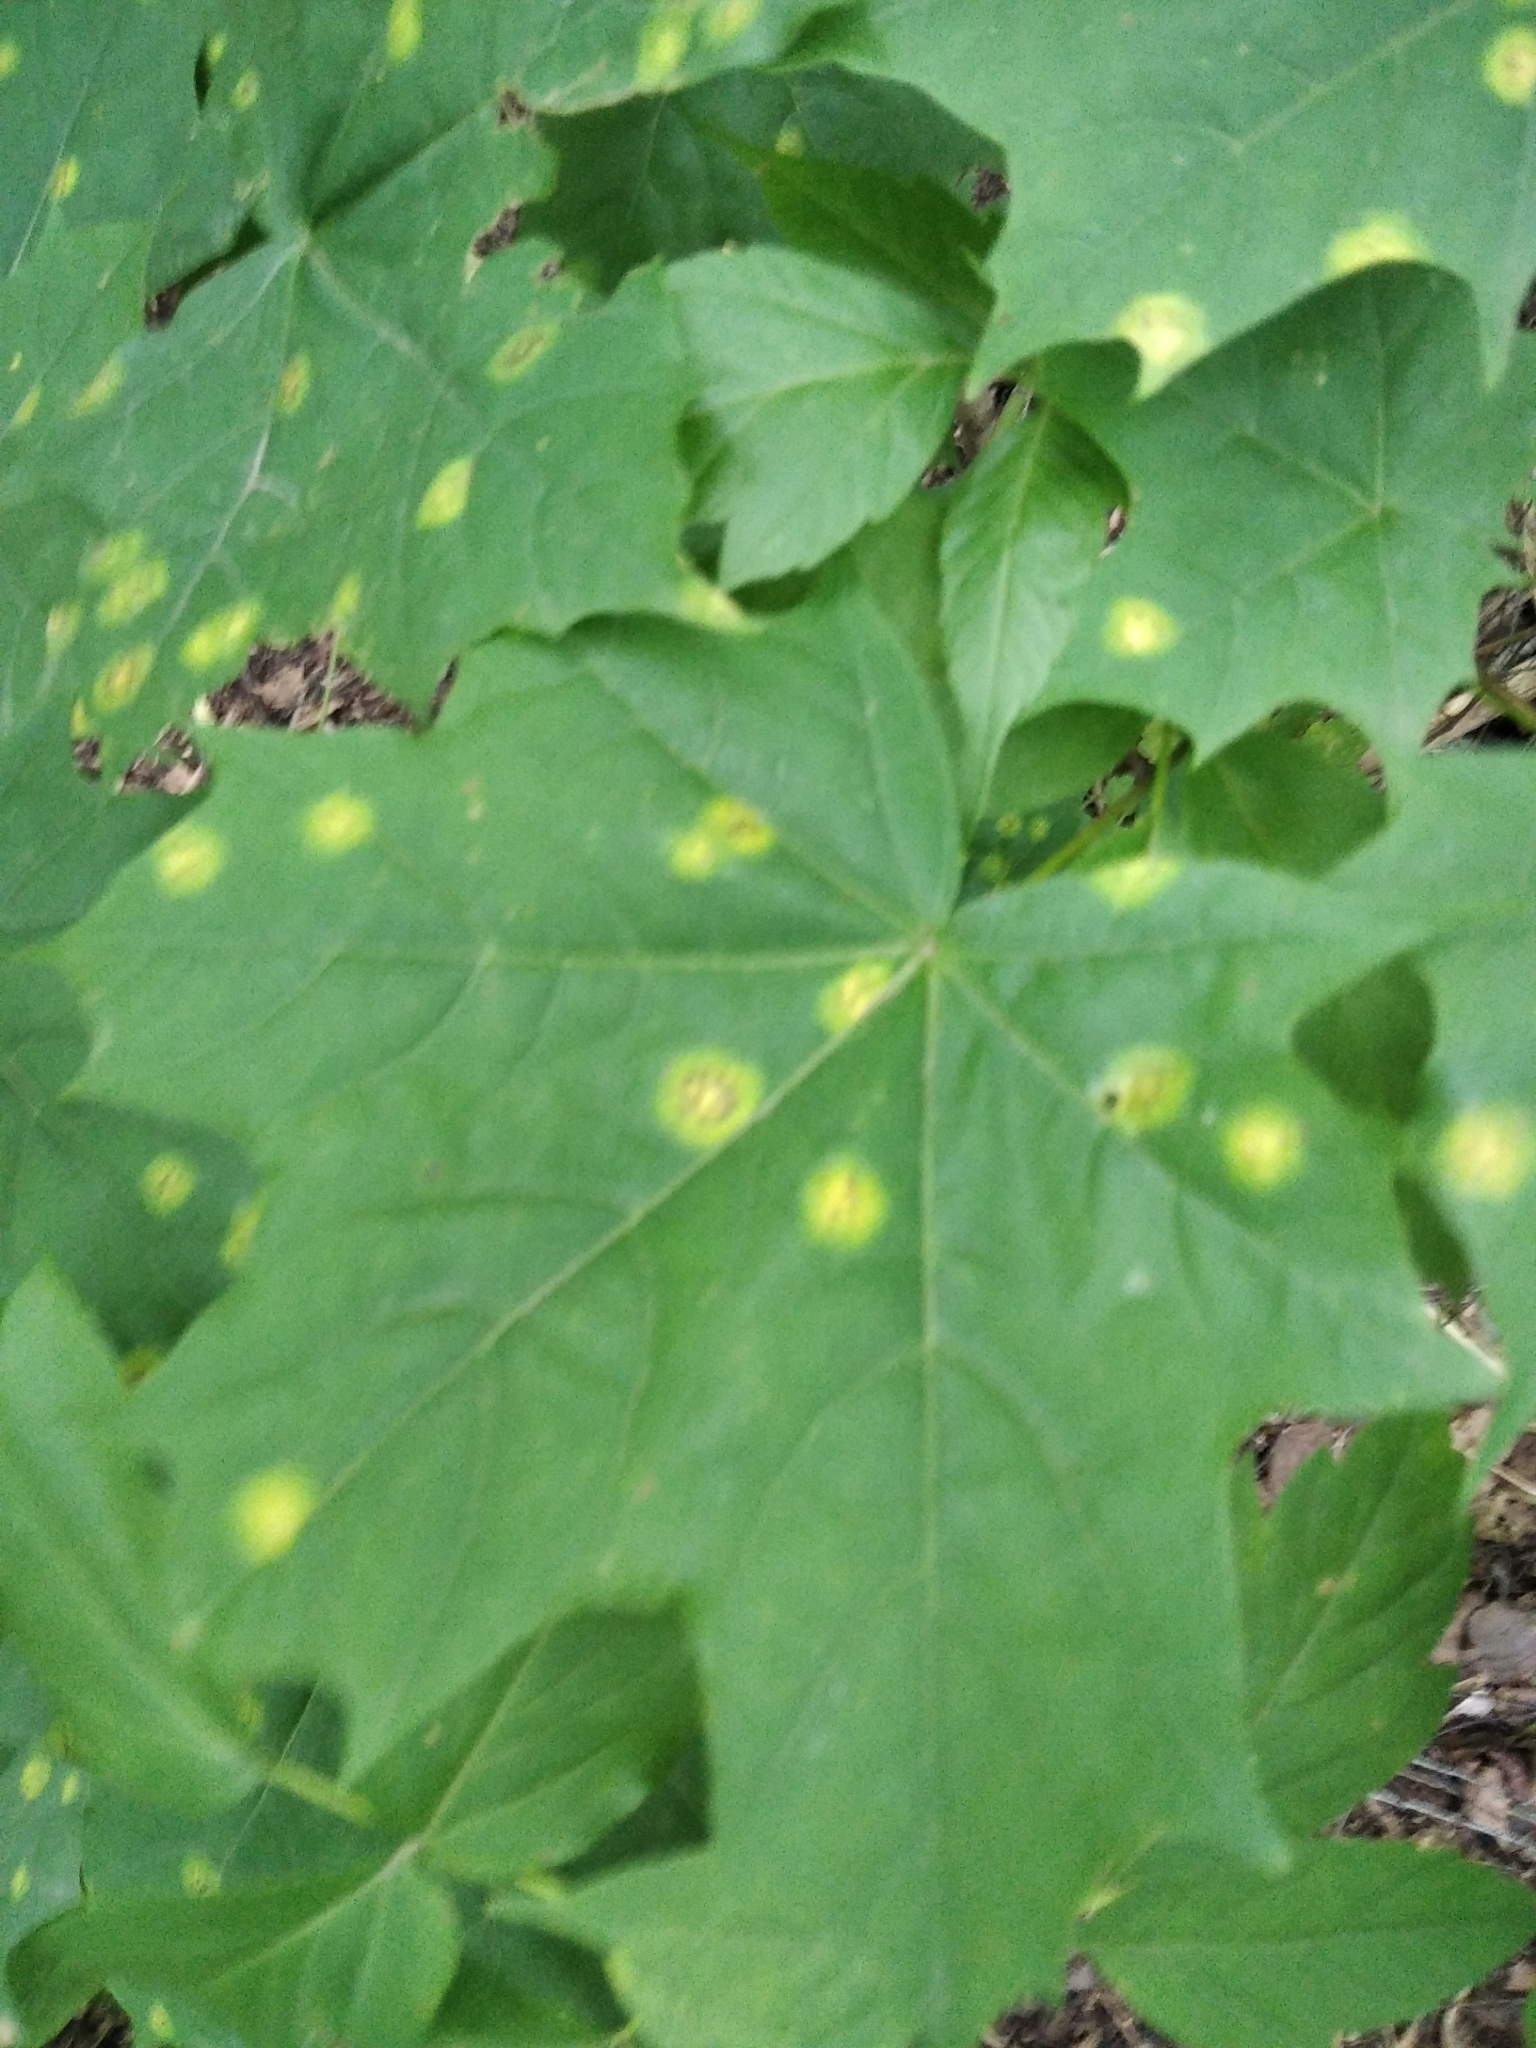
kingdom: Fungi
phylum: Ascomycota
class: Leotiomycetes
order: Rhytismatales
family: Rhytismataceae
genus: Rhytisma
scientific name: Rhytisma acerinum
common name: European tar spot
